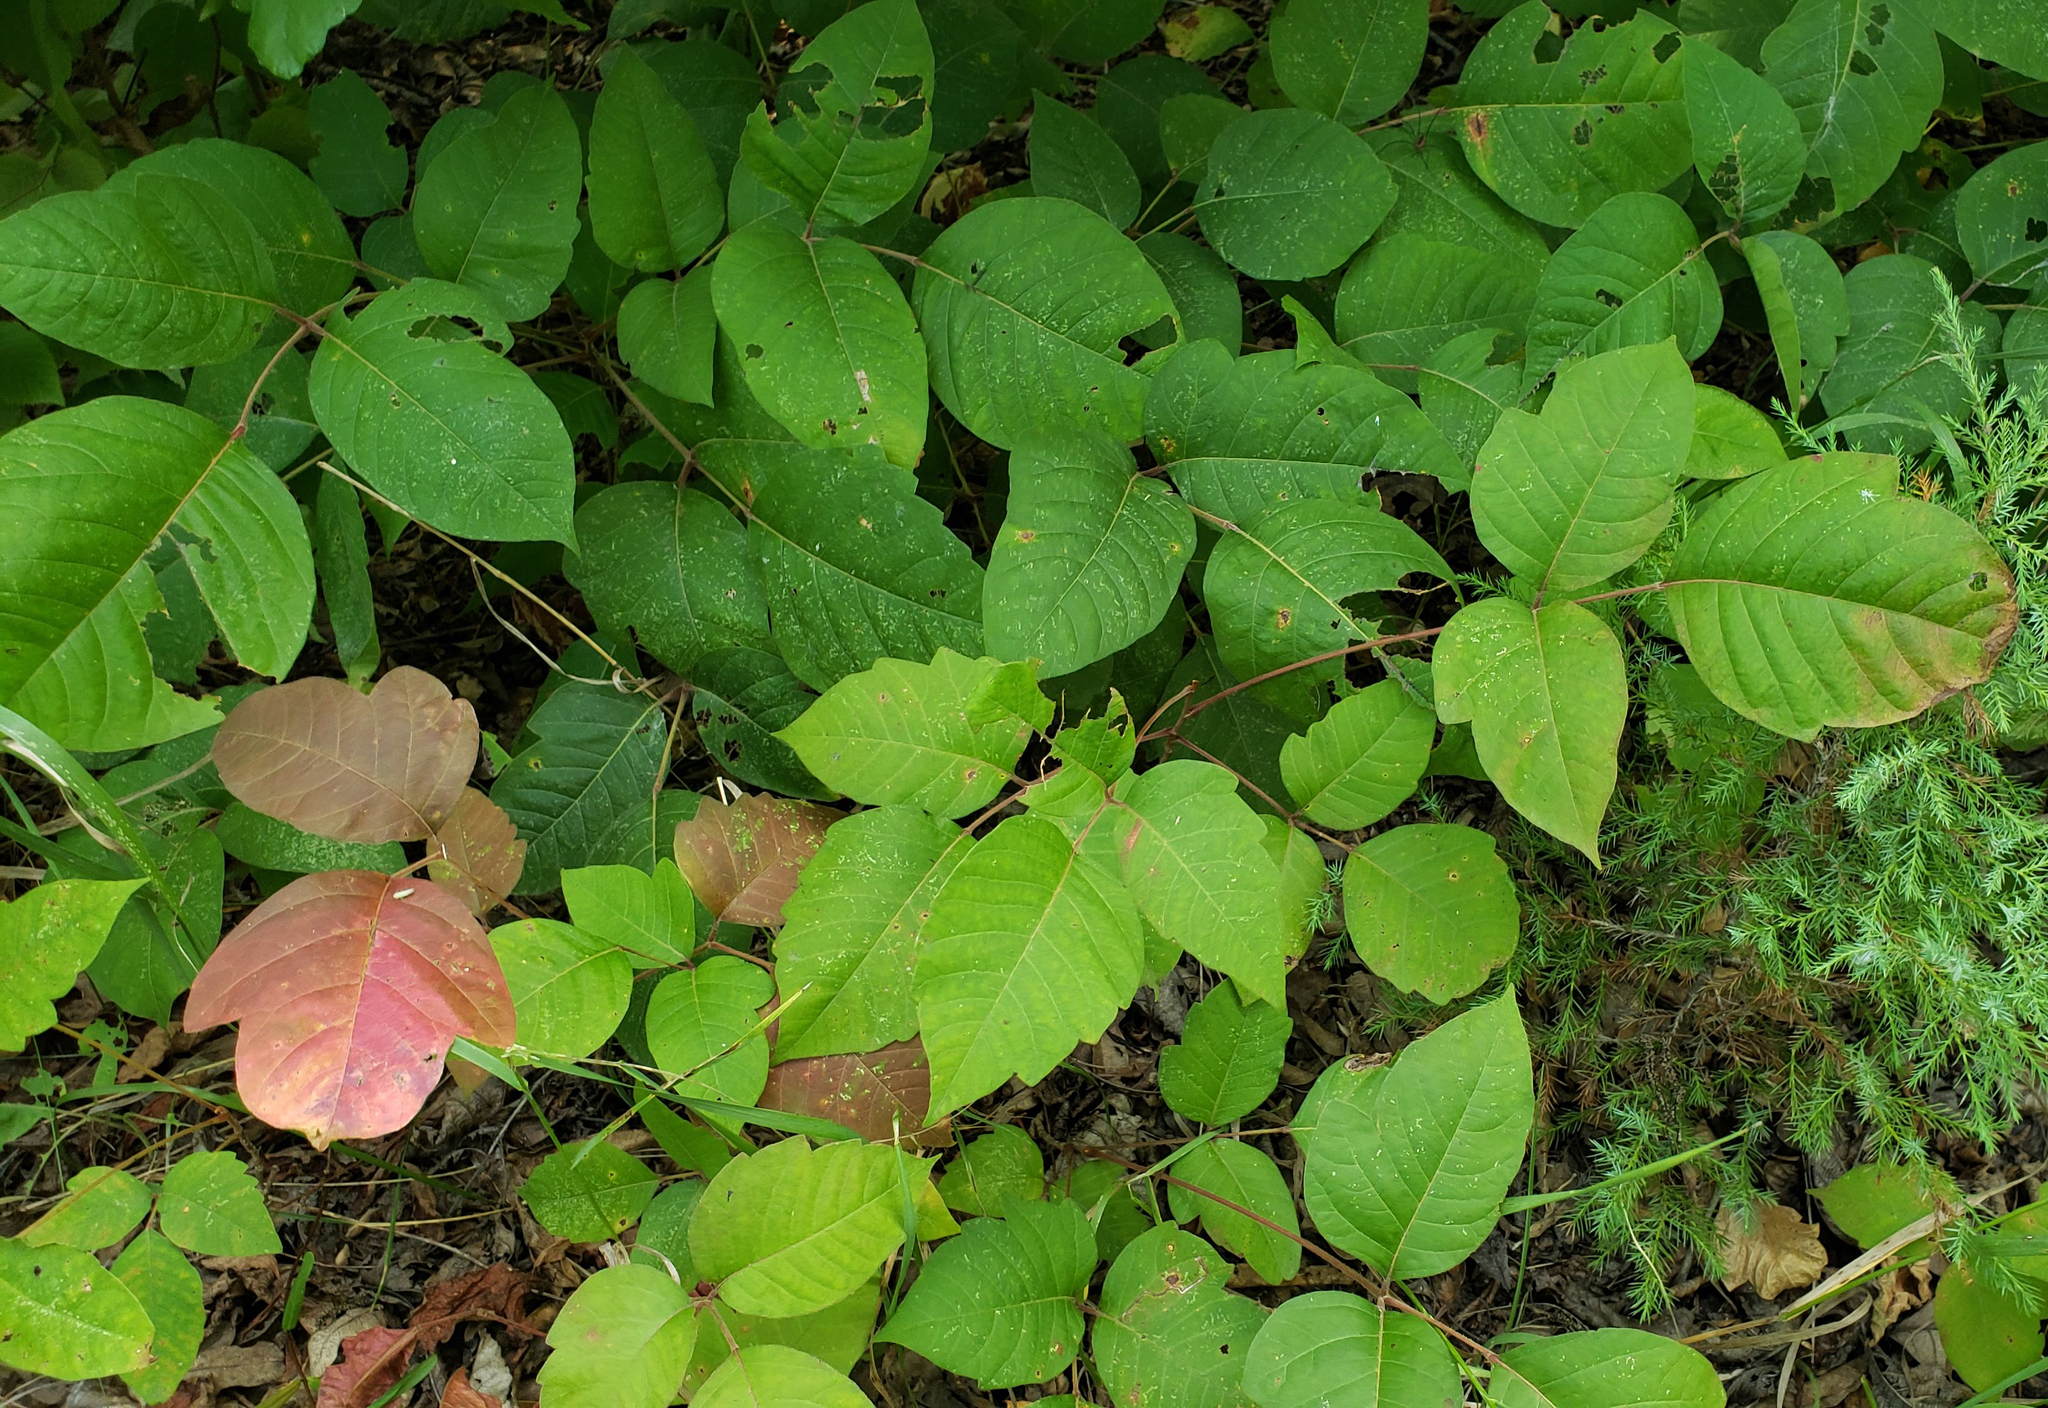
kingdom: Plantae
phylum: Tracheophyta
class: Magnoliopsida
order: Sapindales
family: Anacardiaceae
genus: Toxicodendron
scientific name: Toxicodendron radicans
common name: Poison ivy
